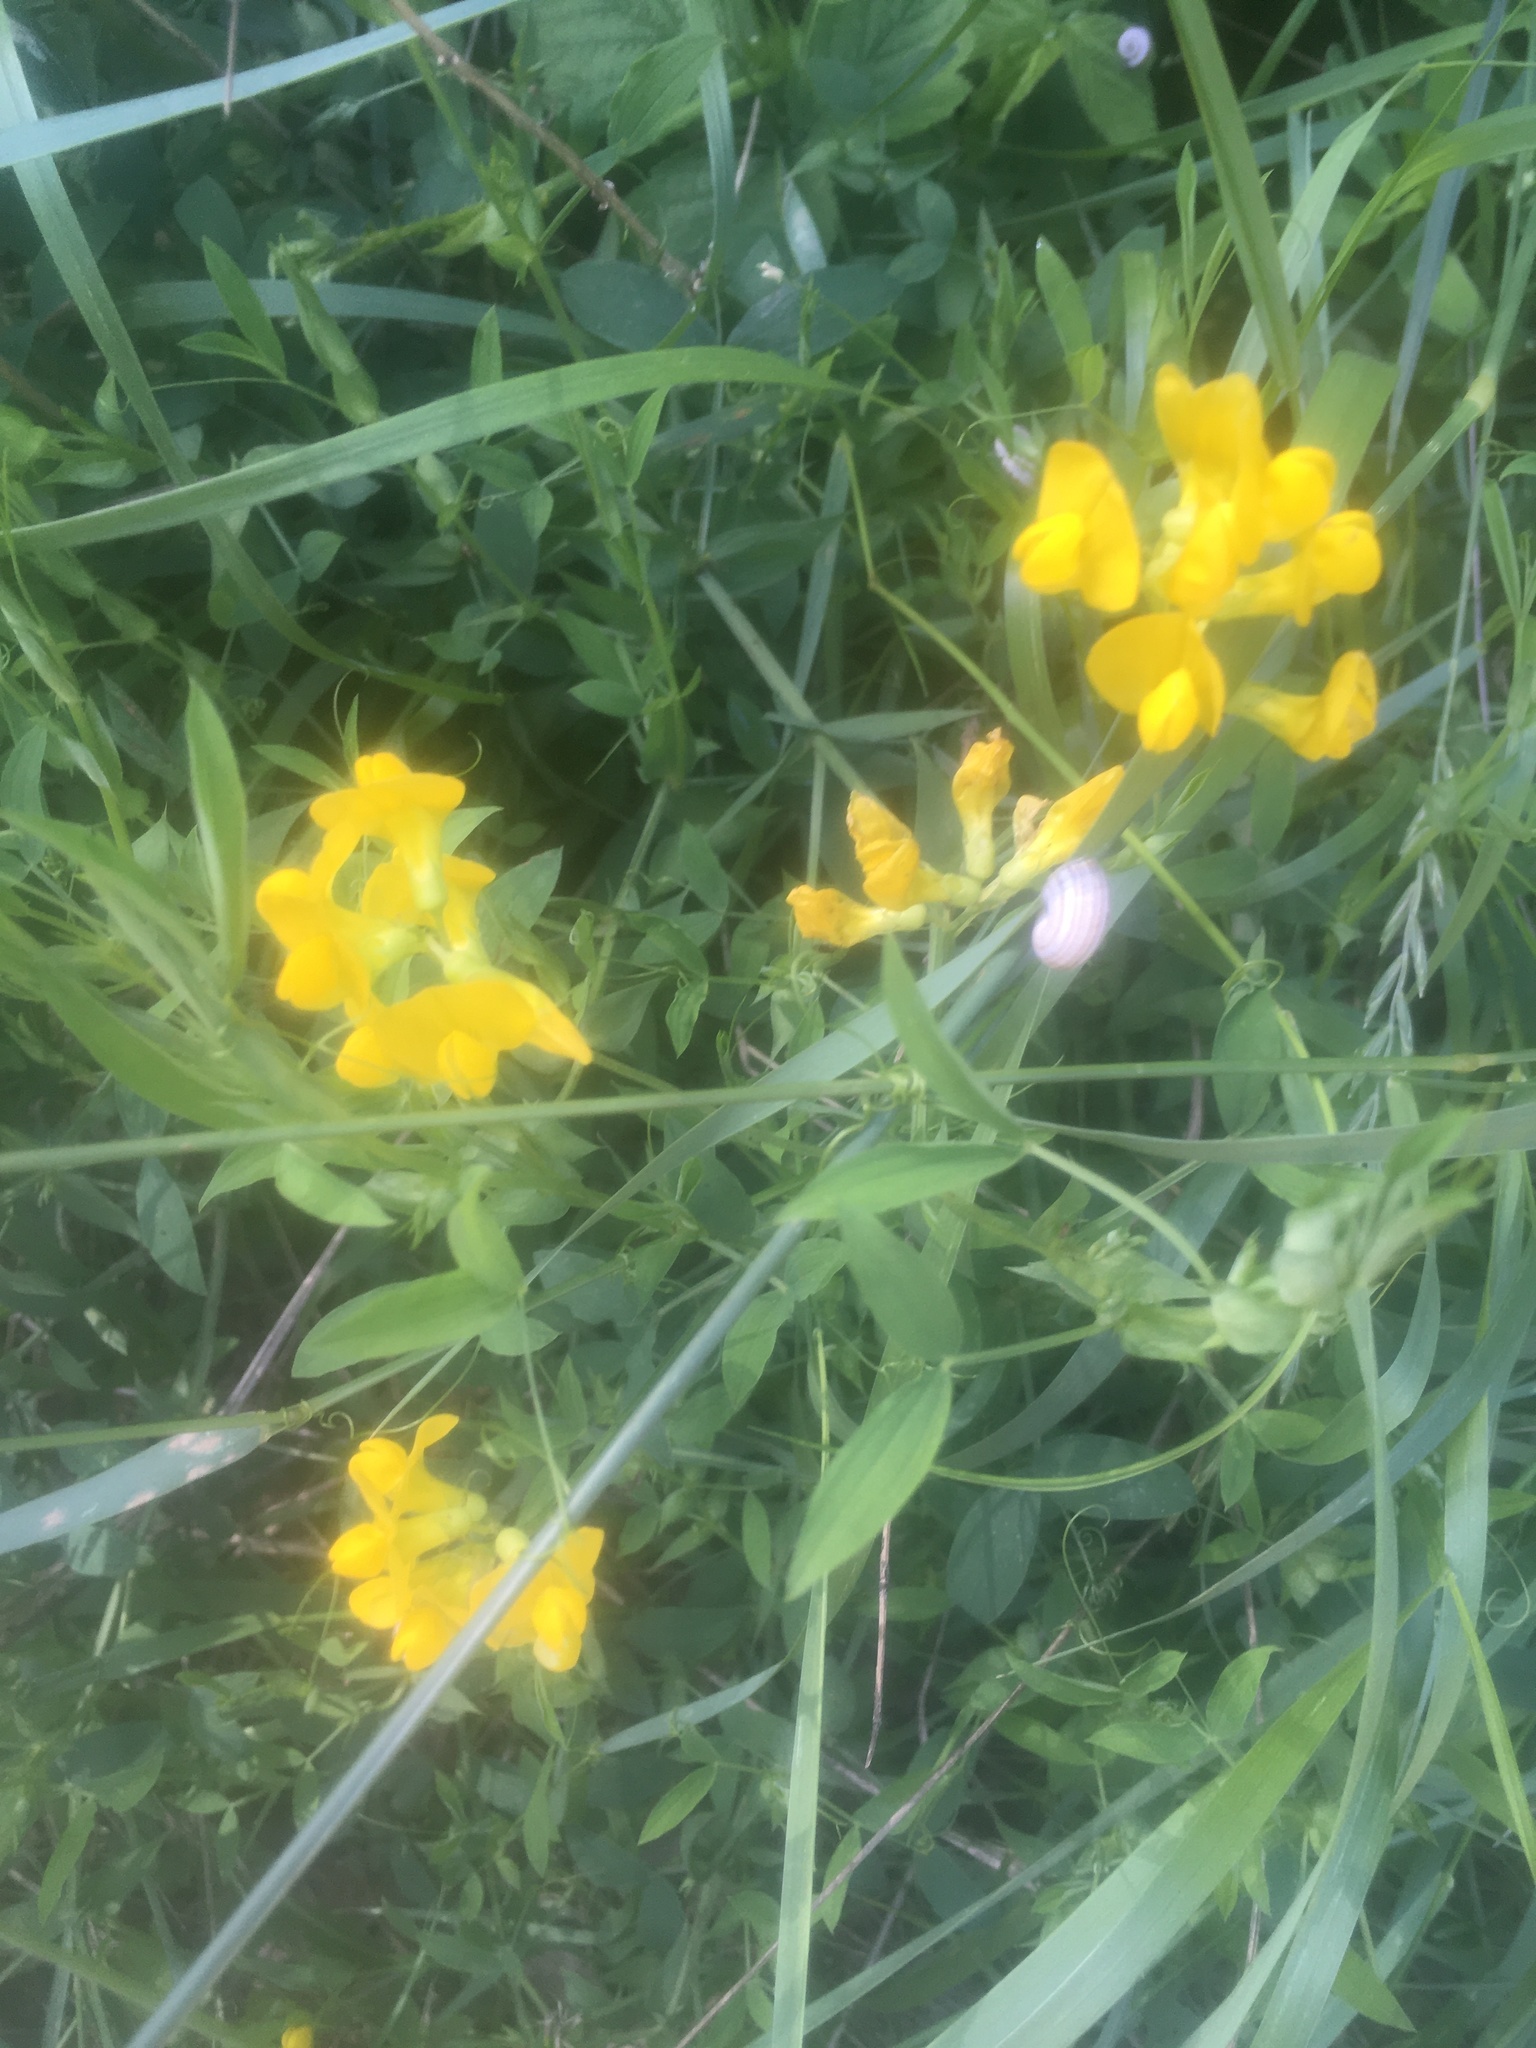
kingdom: Plantae
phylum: Tracheophyta
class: Magnoliopsida
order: Fabales
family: Fabaceae
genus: Lathyrus
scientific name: Lathyrus pratensis
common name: Meadow vetchling
